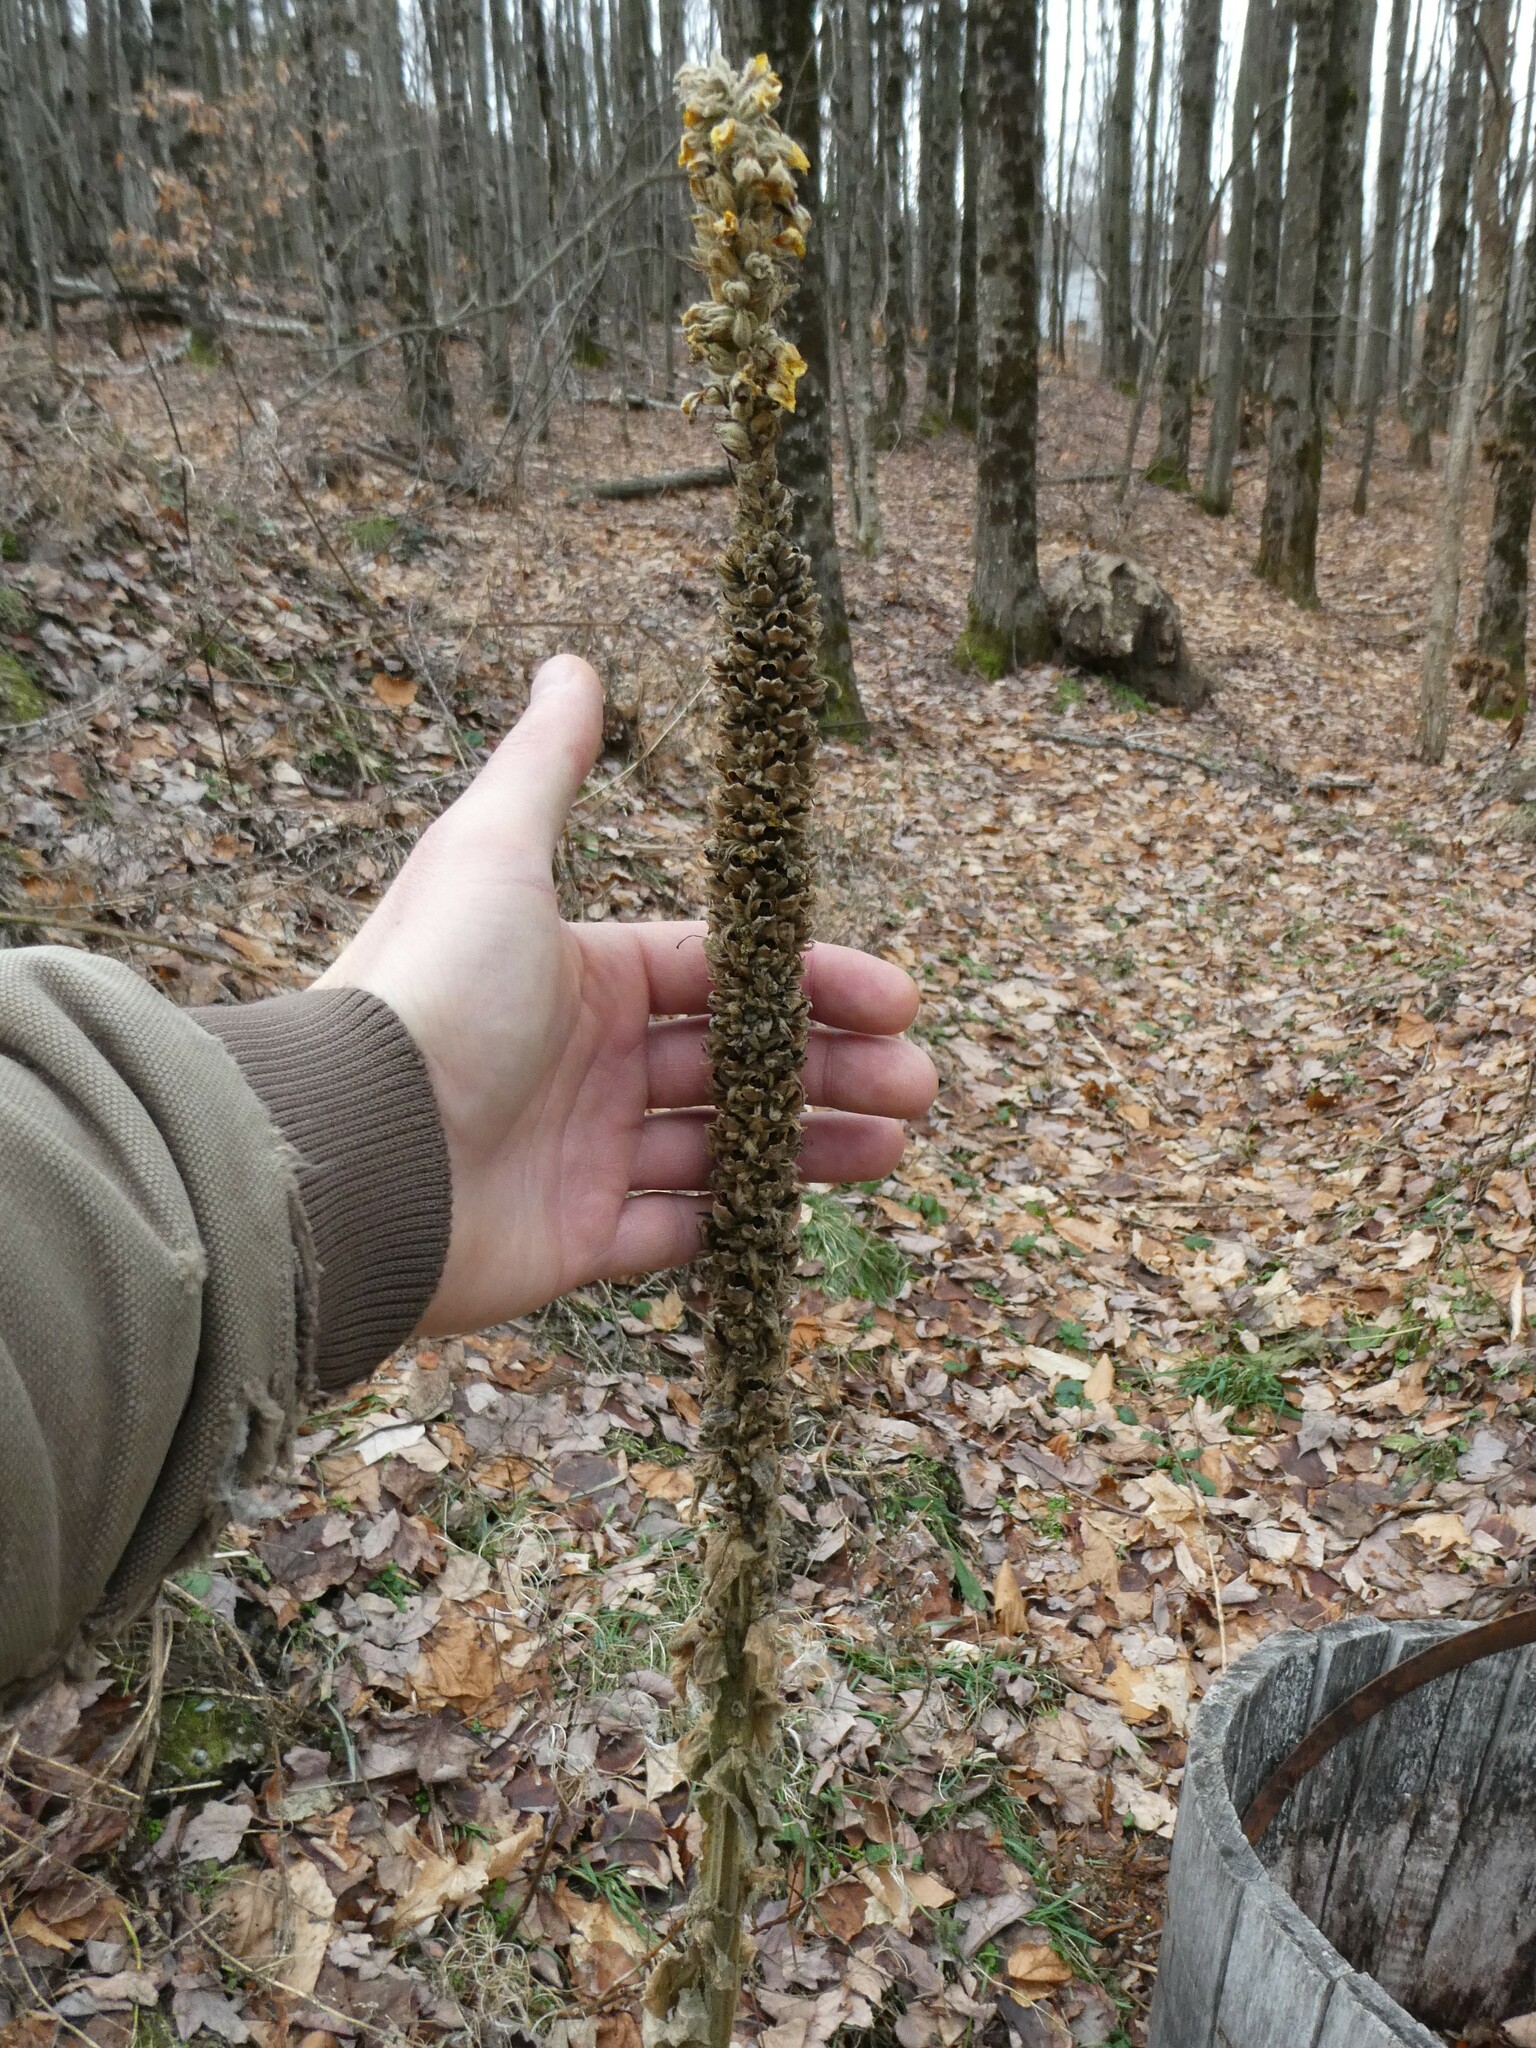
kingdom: Plantae
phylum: Tracheophyta
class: Magnoliopsida
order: Lamiales
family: Scrophulariaceae
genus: Verbascum
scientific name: Verbascum thapsus
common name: Common mullein
